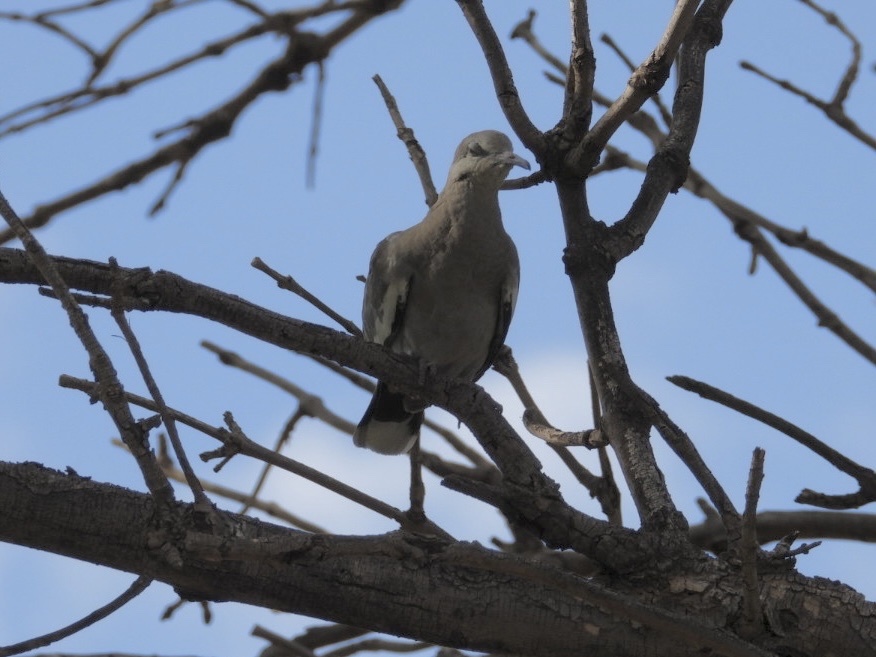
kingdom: Animalia
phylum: Chordata
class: Aves
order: Columbiformes
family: Columbidae
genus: Zenaida
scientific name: Zenaida asiatica
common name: White-winged dove
